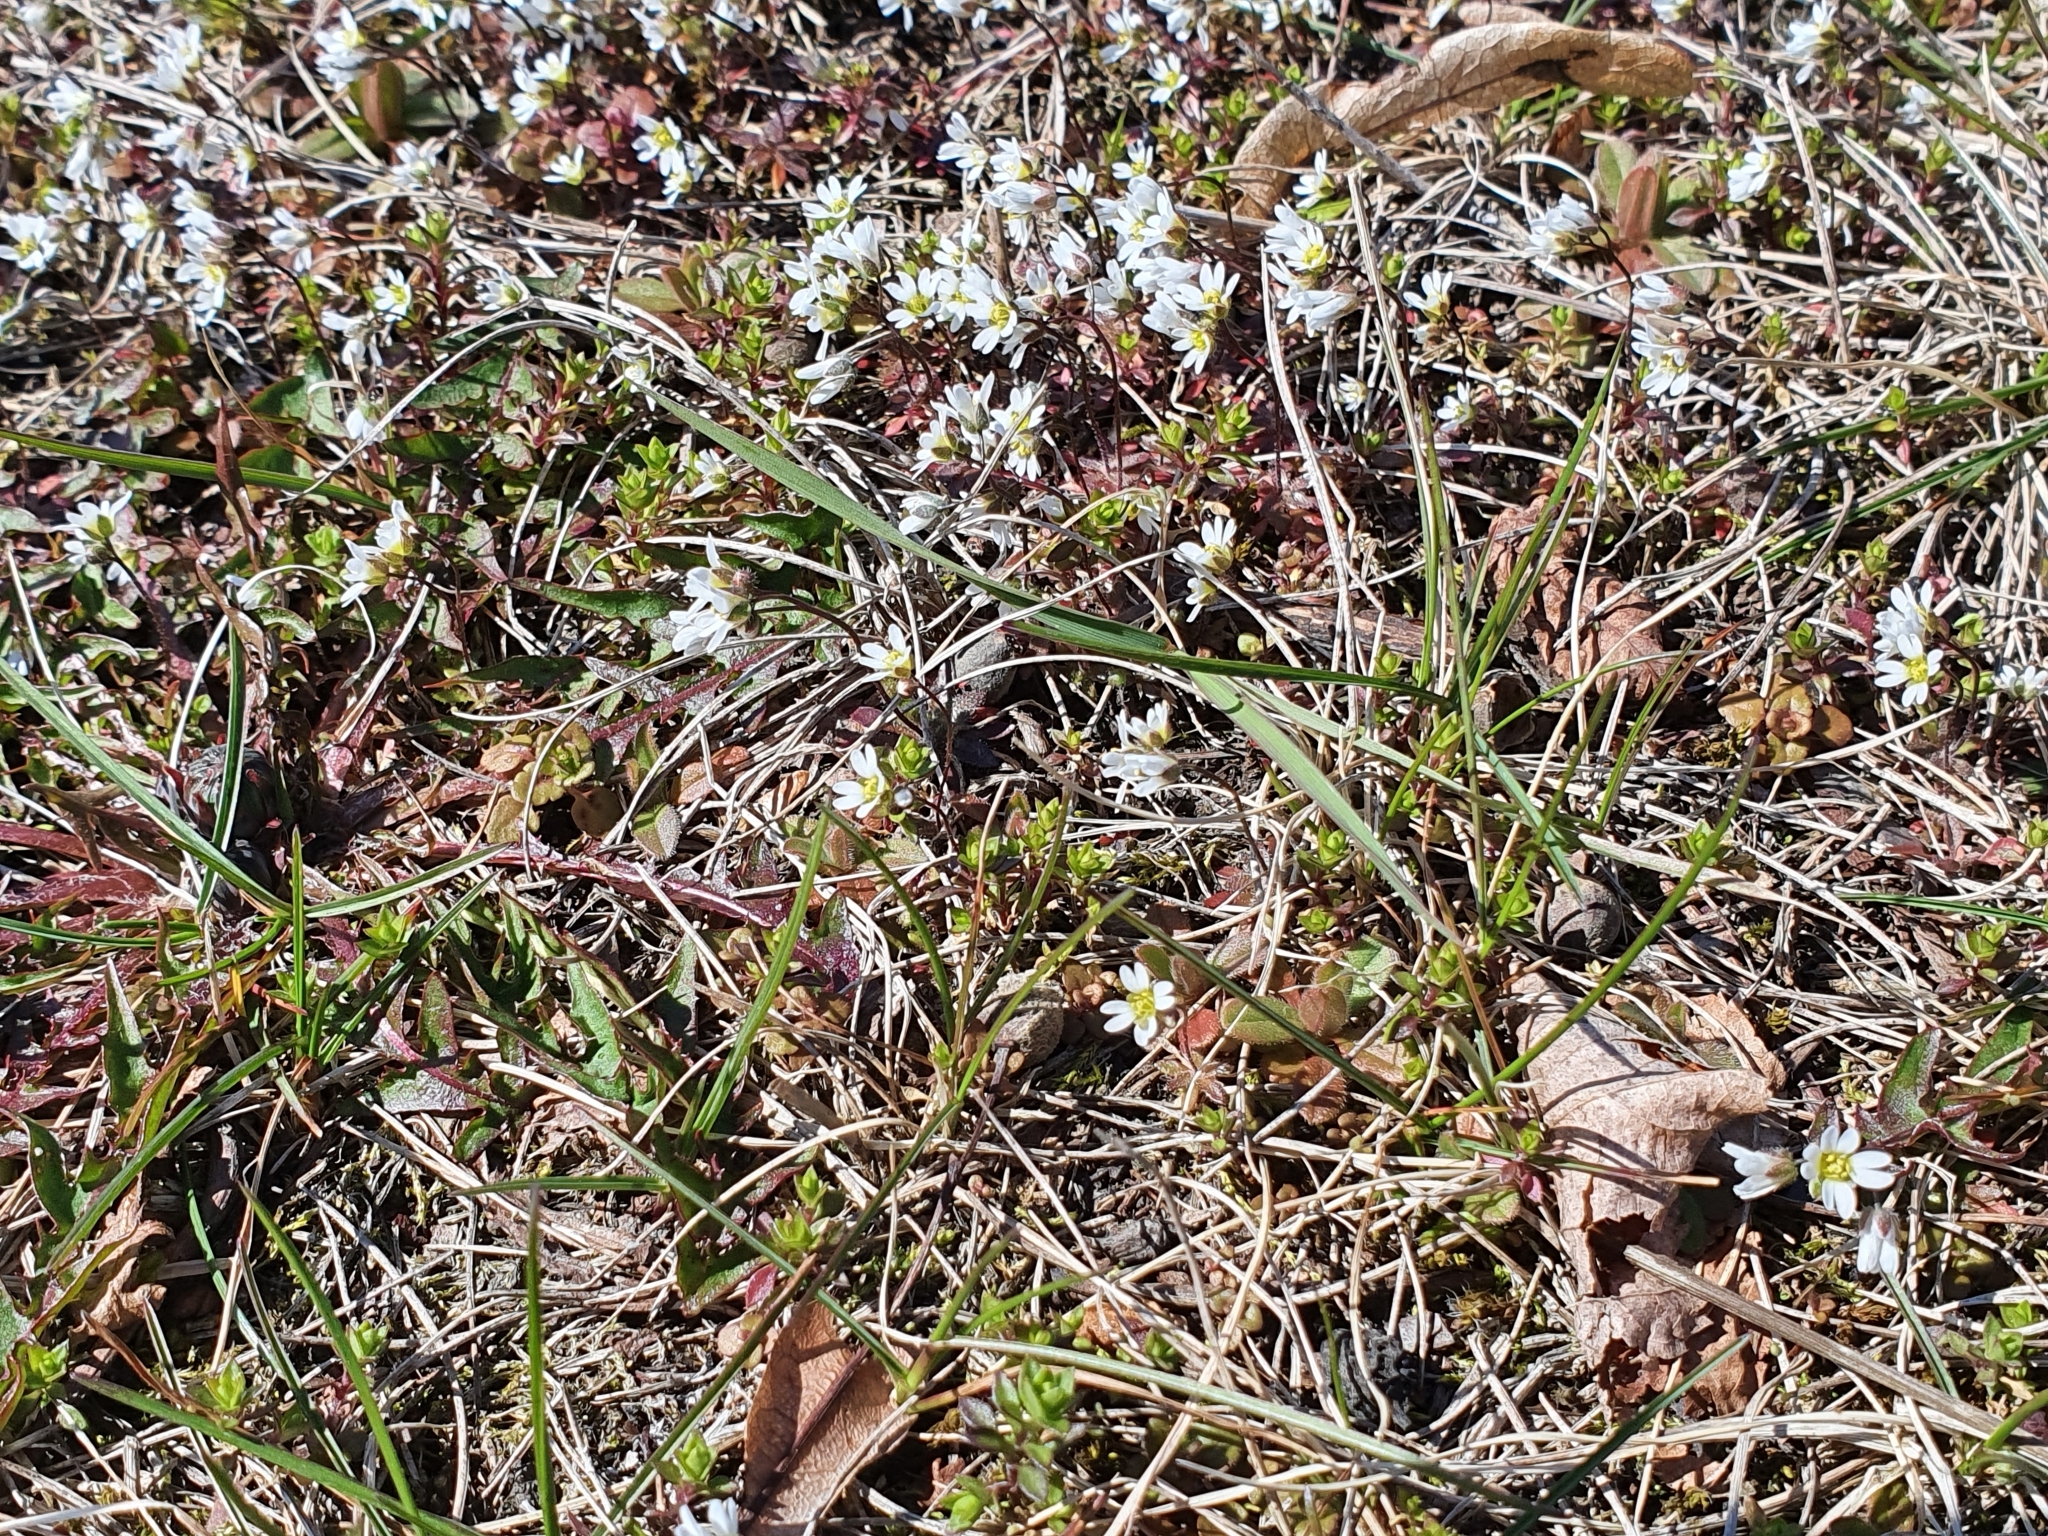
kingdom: Plantae
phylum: Tracheophyta
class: Magnoliopsida
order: Brassicales
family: Brassicaceae
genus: Draba
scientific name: Draba verna
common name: Spring draba
